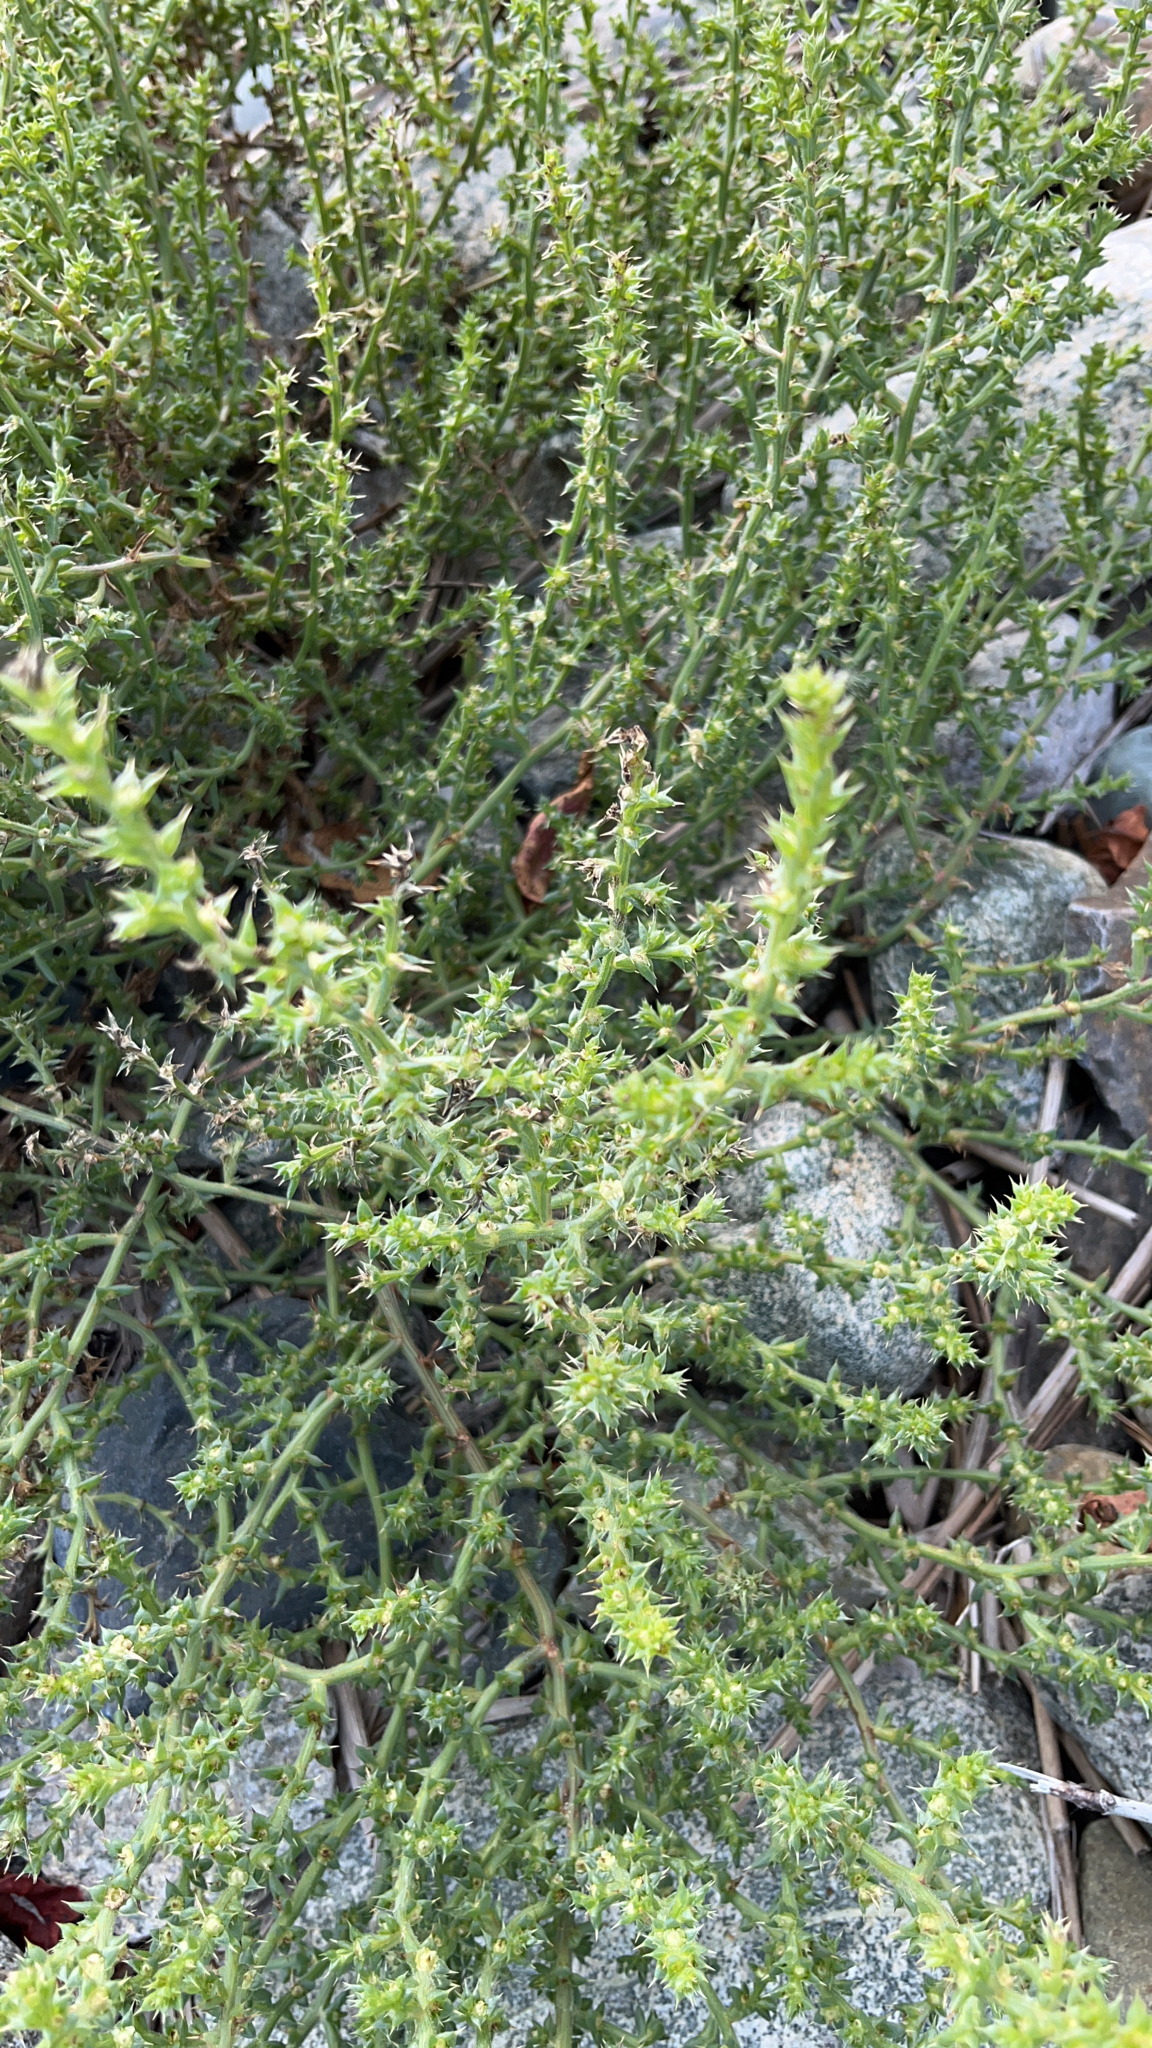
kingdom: Plantae
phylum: Tracheophyta
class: Magnoliopsida
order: Caryophyllales
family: Amaranthaceae
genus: Salsola
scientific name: Salsola kali
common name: Saltwort
